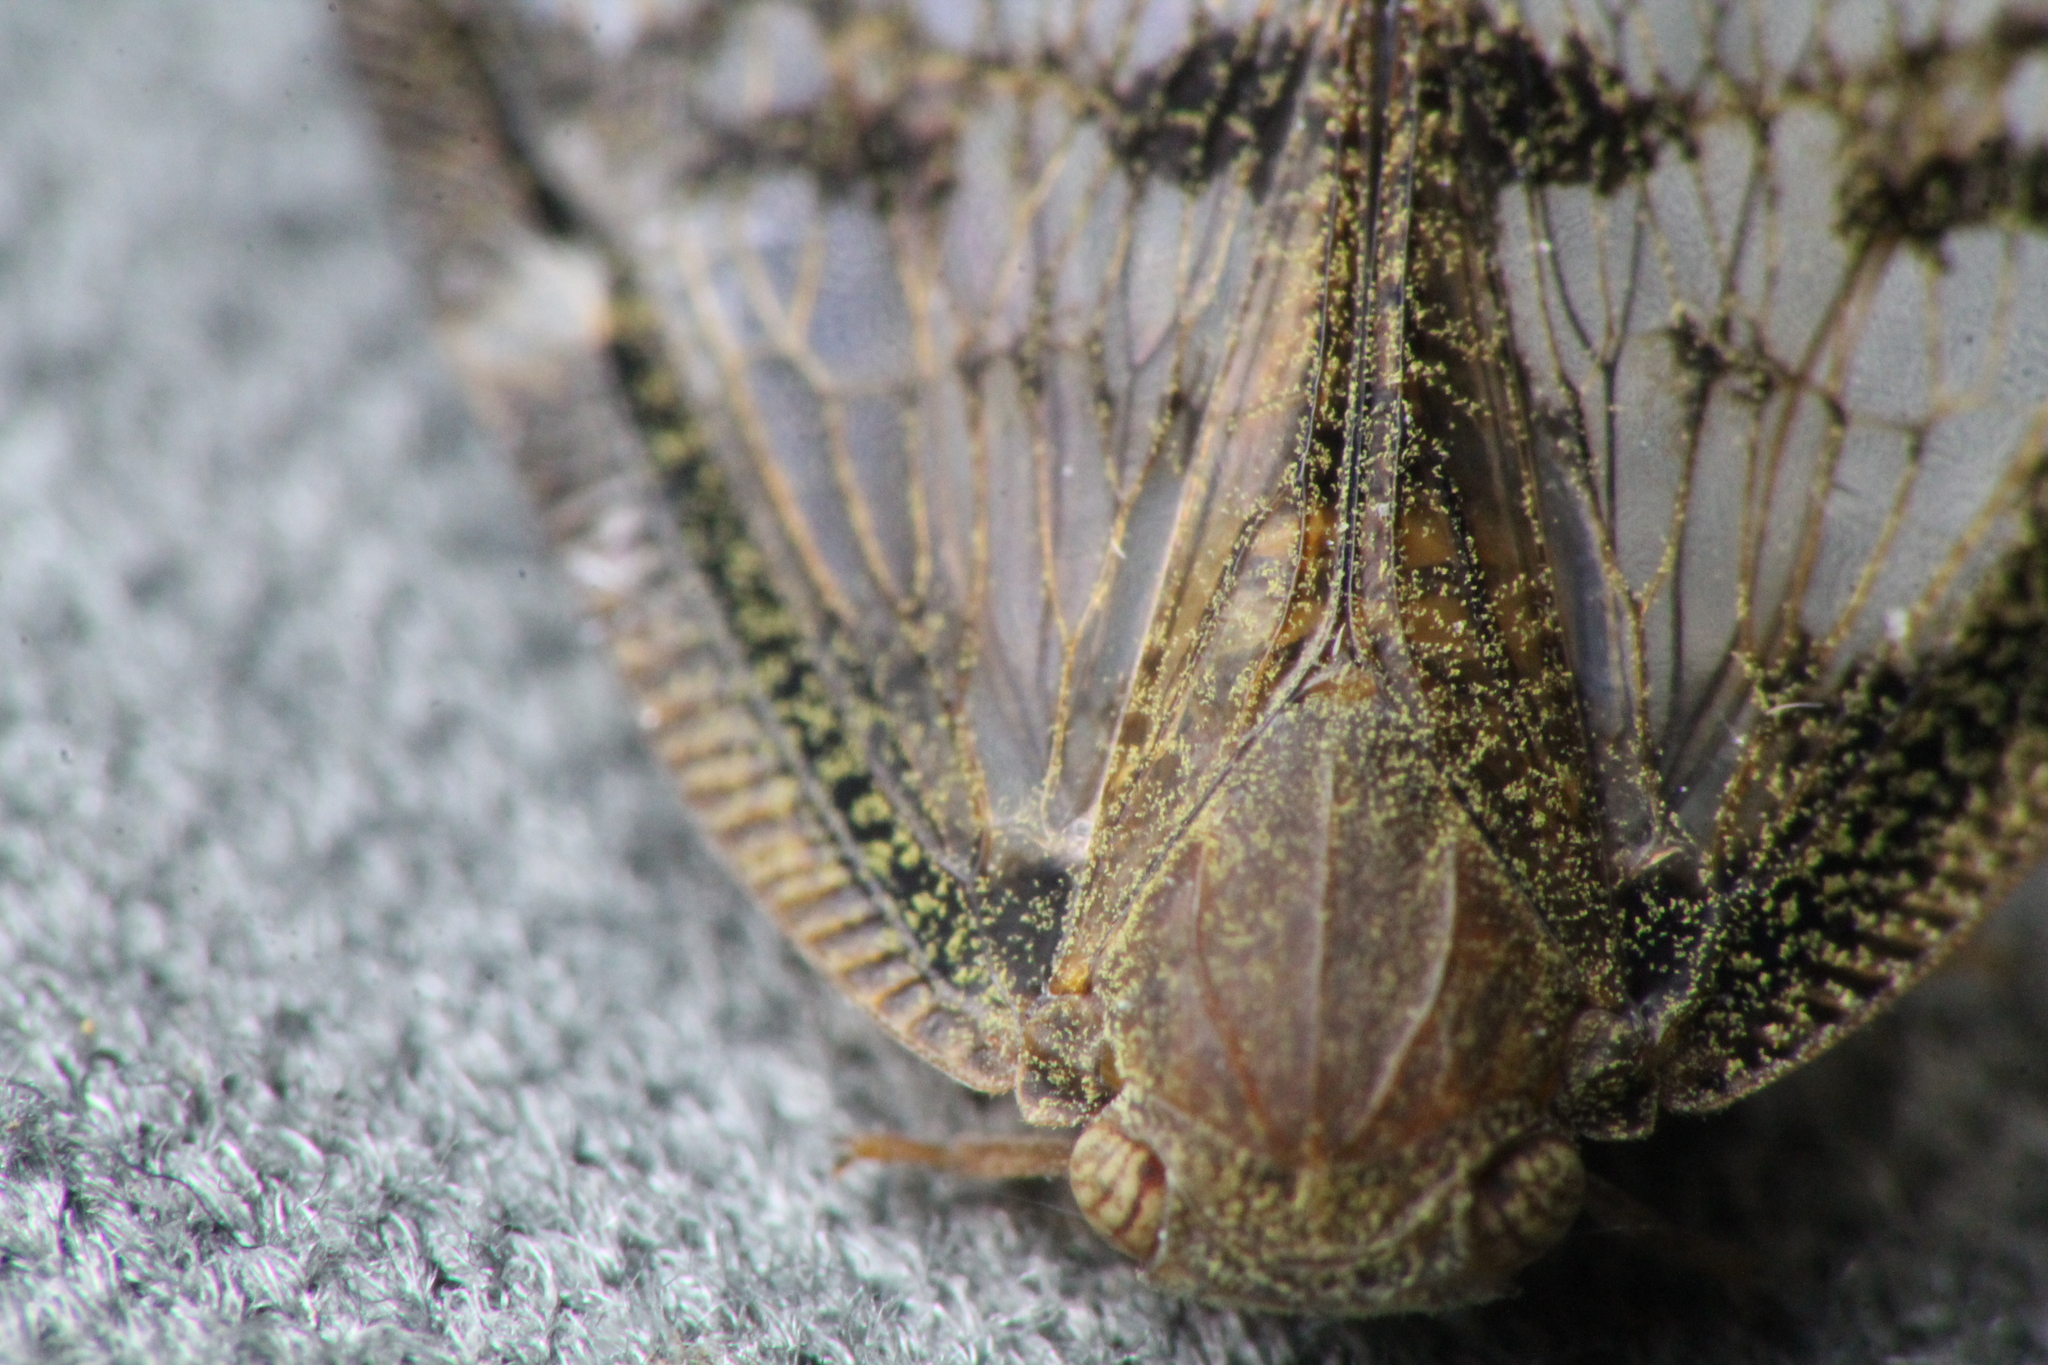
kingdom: Animalia
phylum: Arthropoda
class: Insecta
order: Hemiptera
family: Ricaniidae
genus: Scolypopa
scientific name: Scolypopa australis
